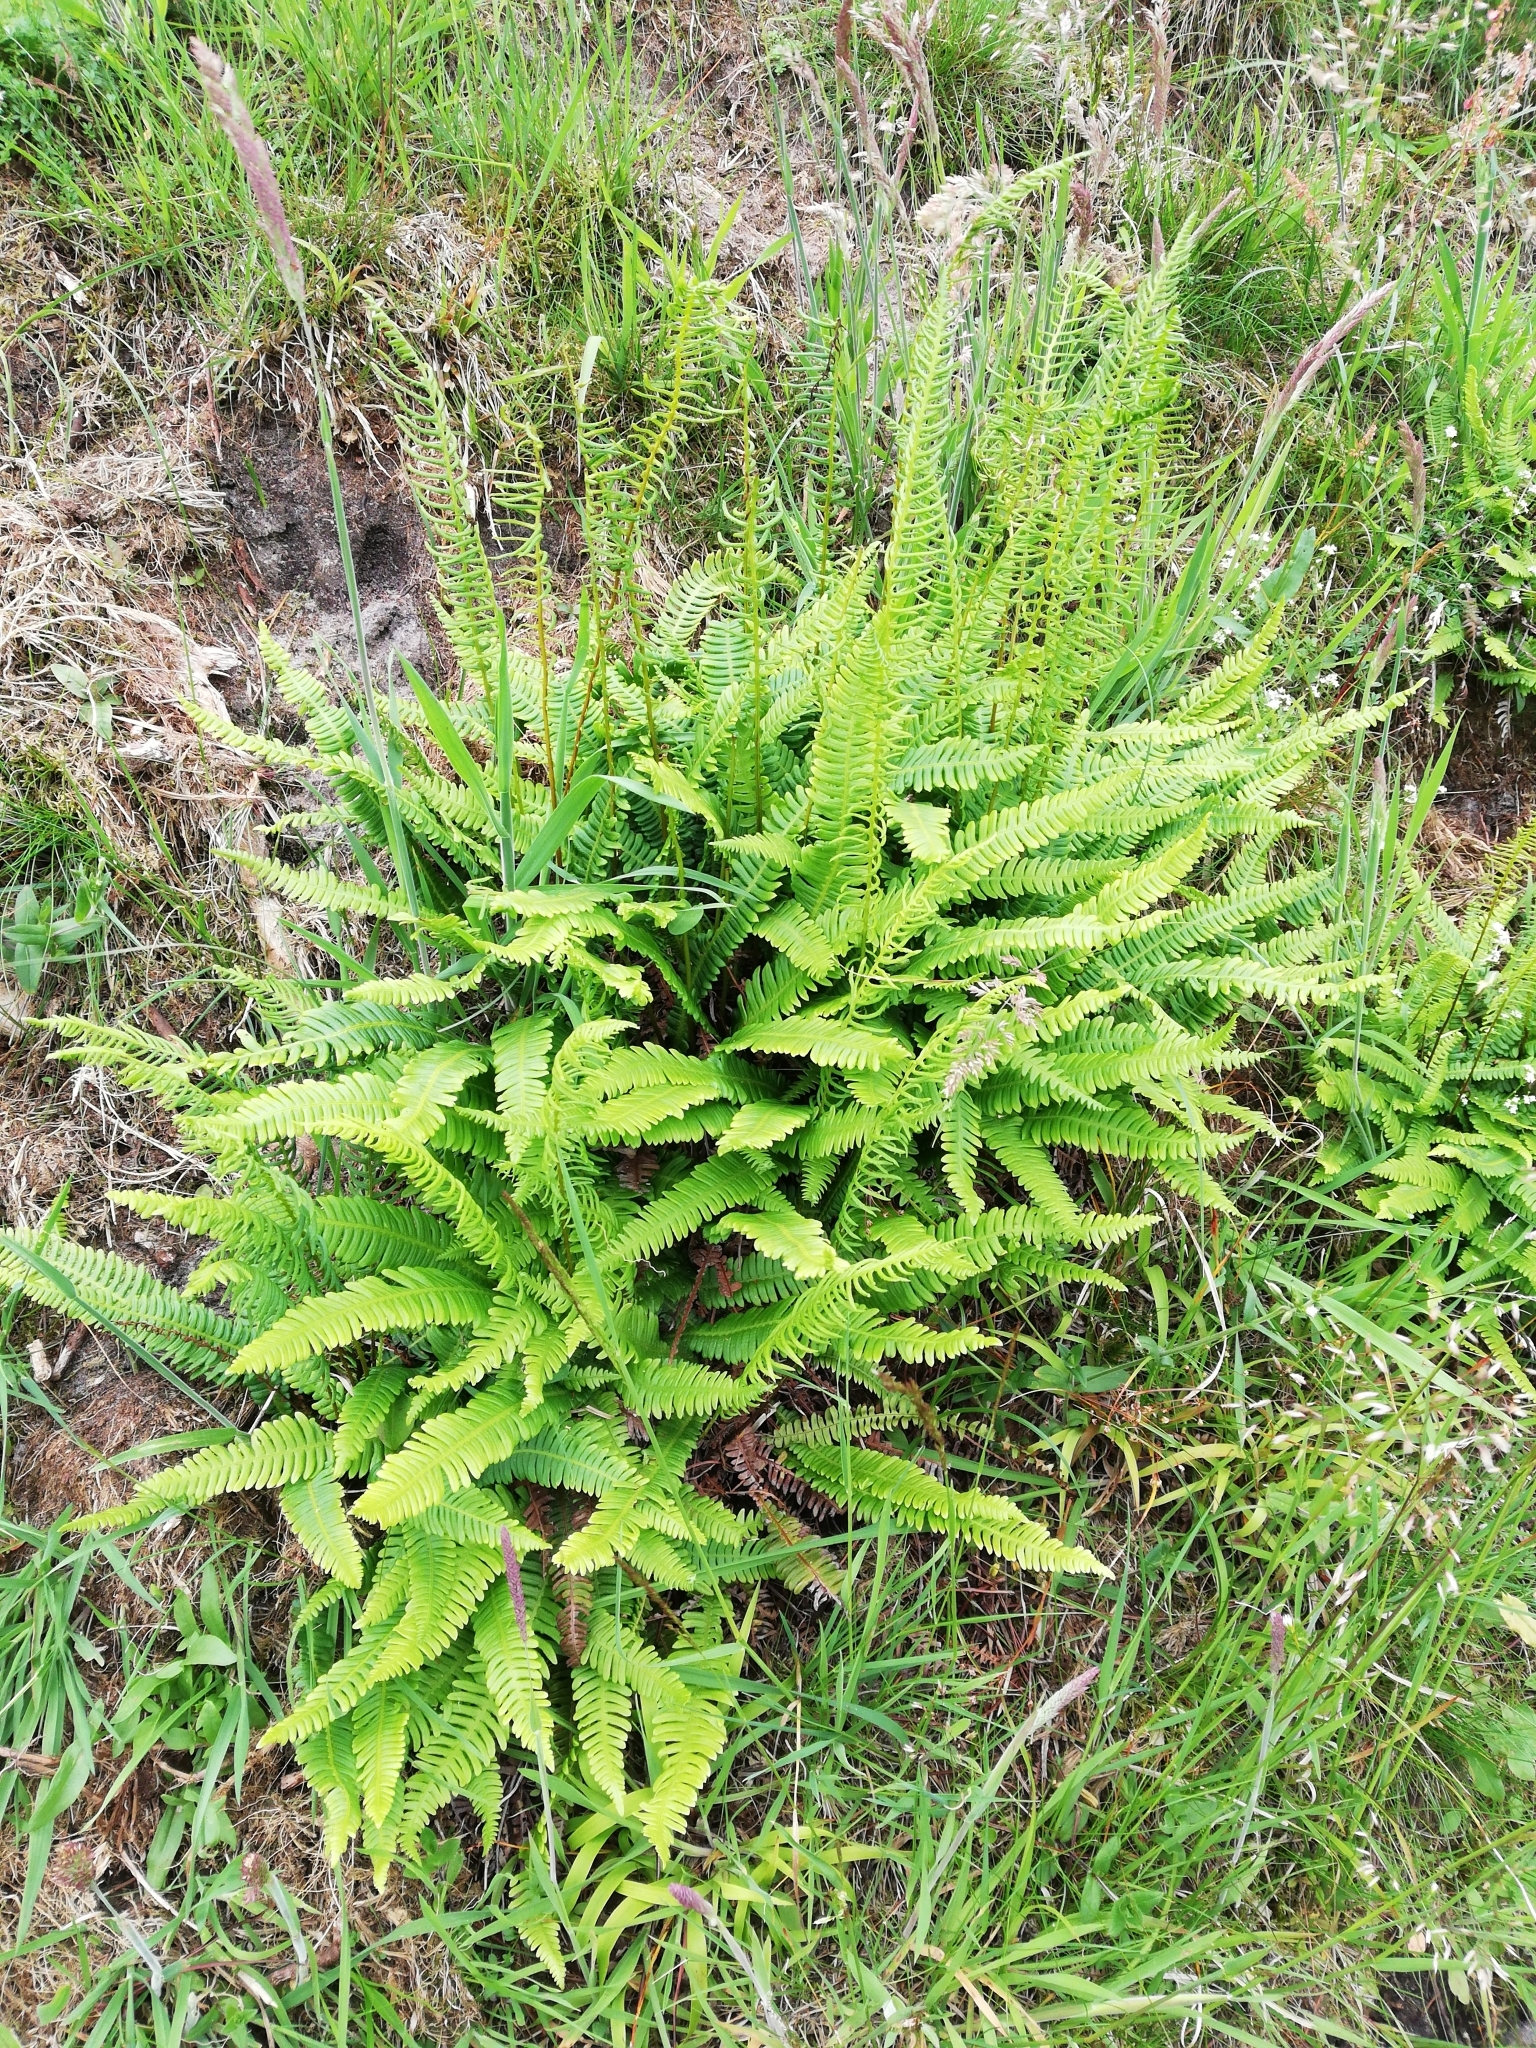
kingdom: Plantae
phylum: Tracheophyta
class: Polypodiopsida
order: Polypodiales
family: Blechnaceae
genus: Struthiopteris
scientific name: Struthiopteris spicant
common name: Deer fern
